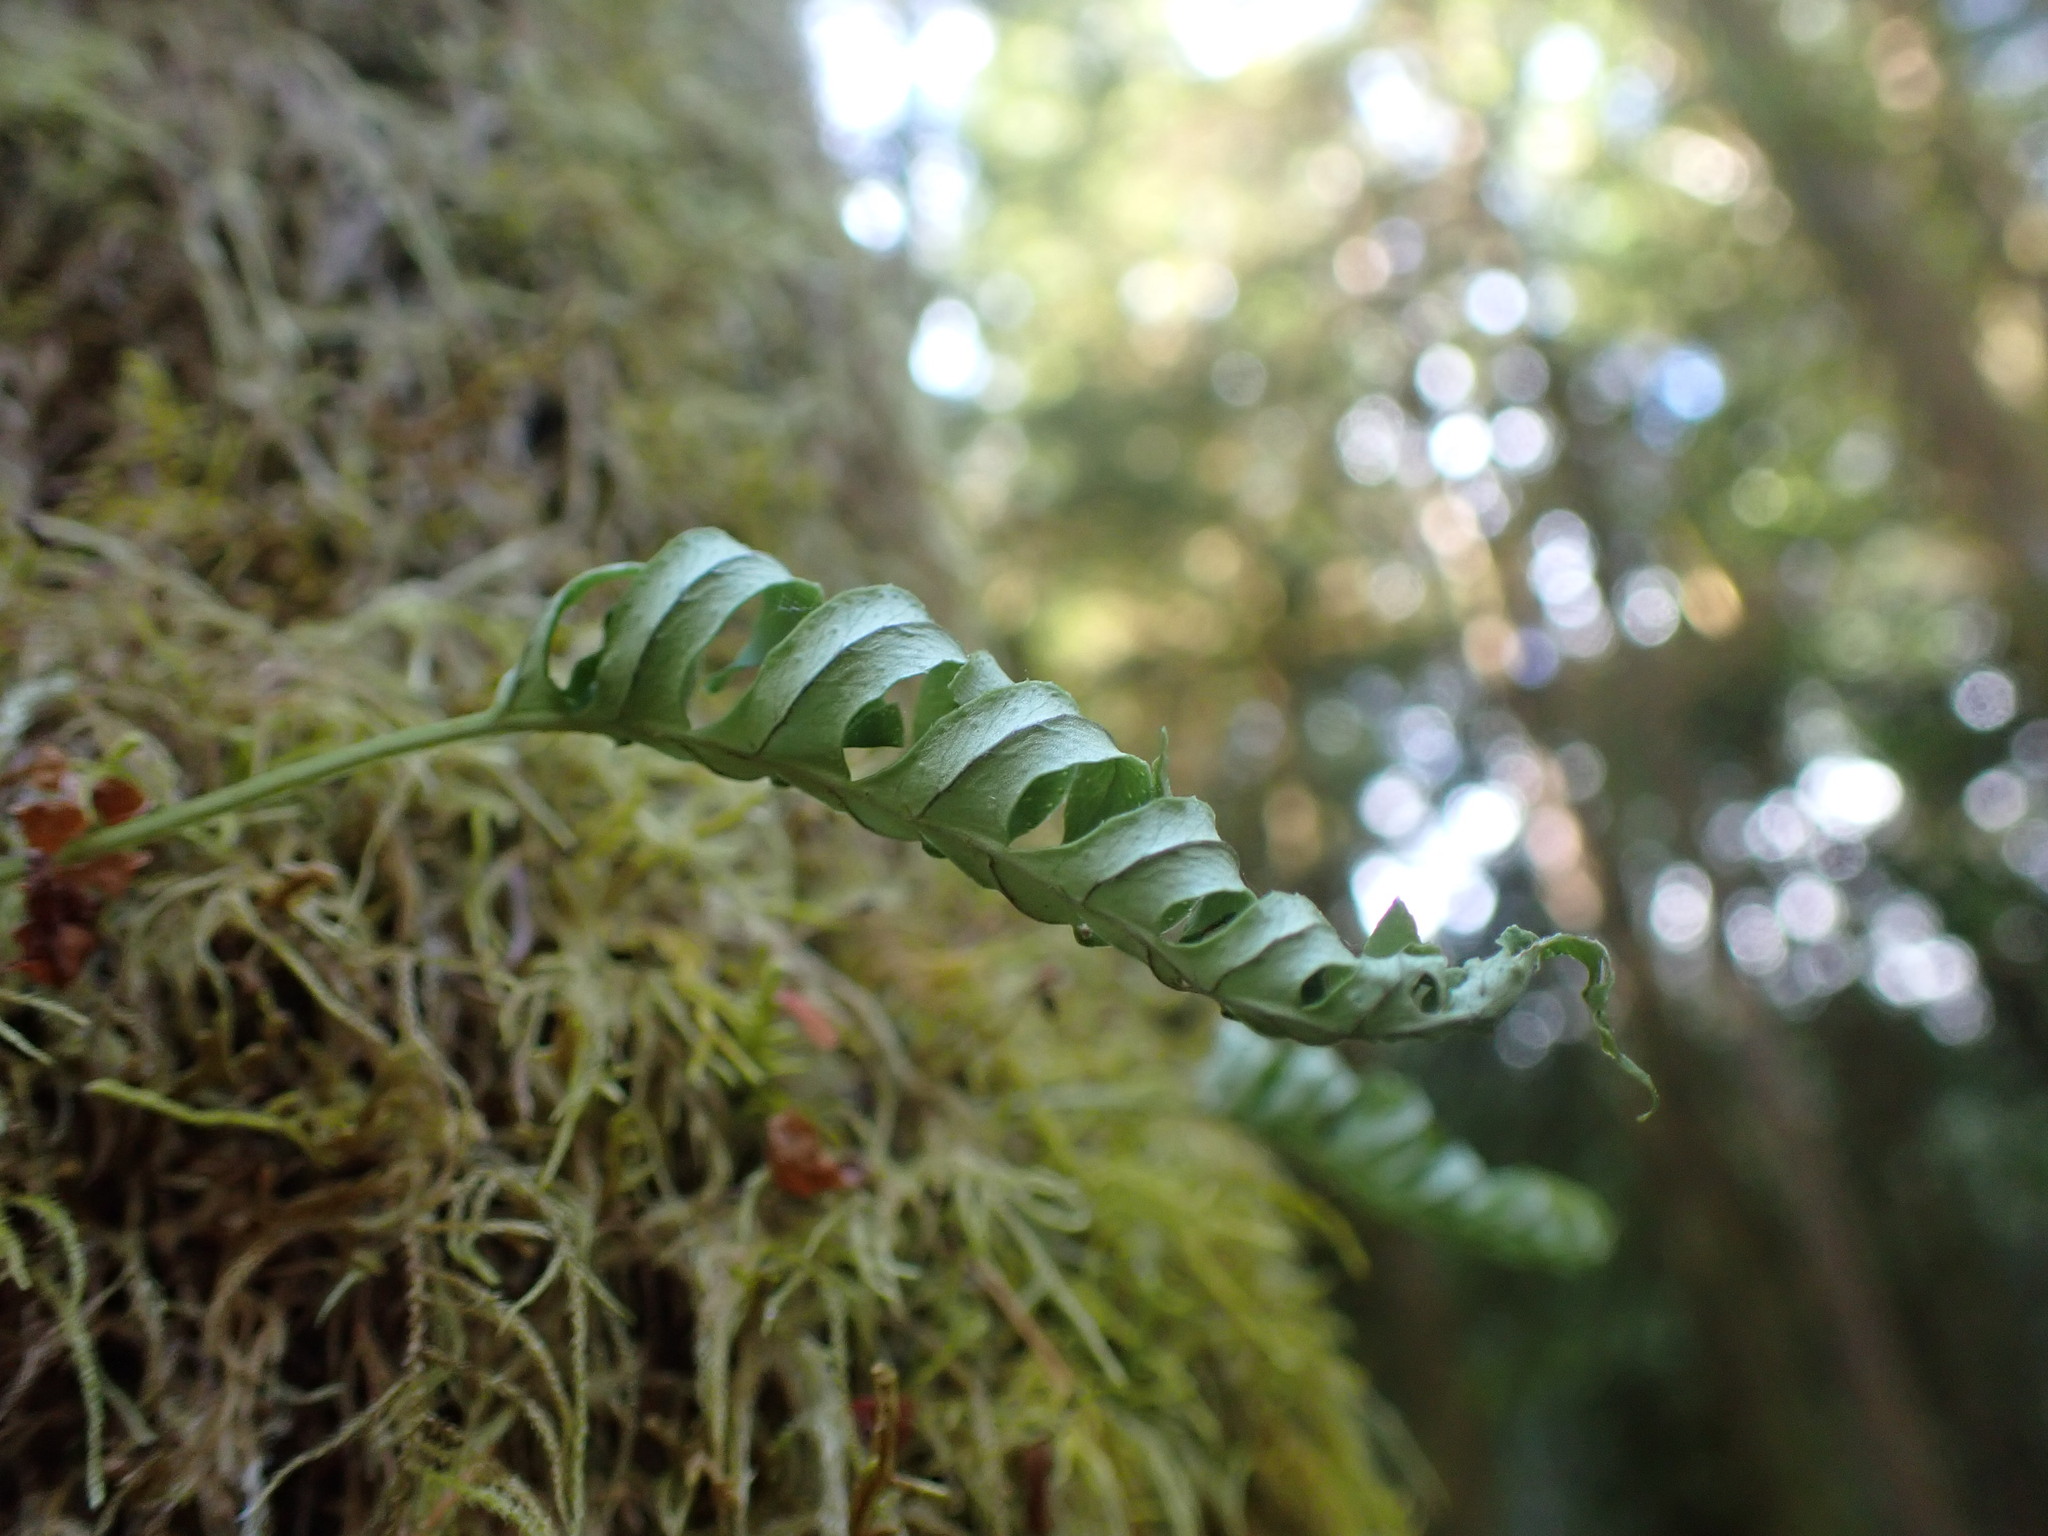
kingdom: Plantae
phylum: Tracheophyta
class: Polypodiopsida
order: Polypodiales
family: Polypodiaceae
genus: Polypodium
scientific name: Polypodium glycyrrhiza
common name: Licorice fern
